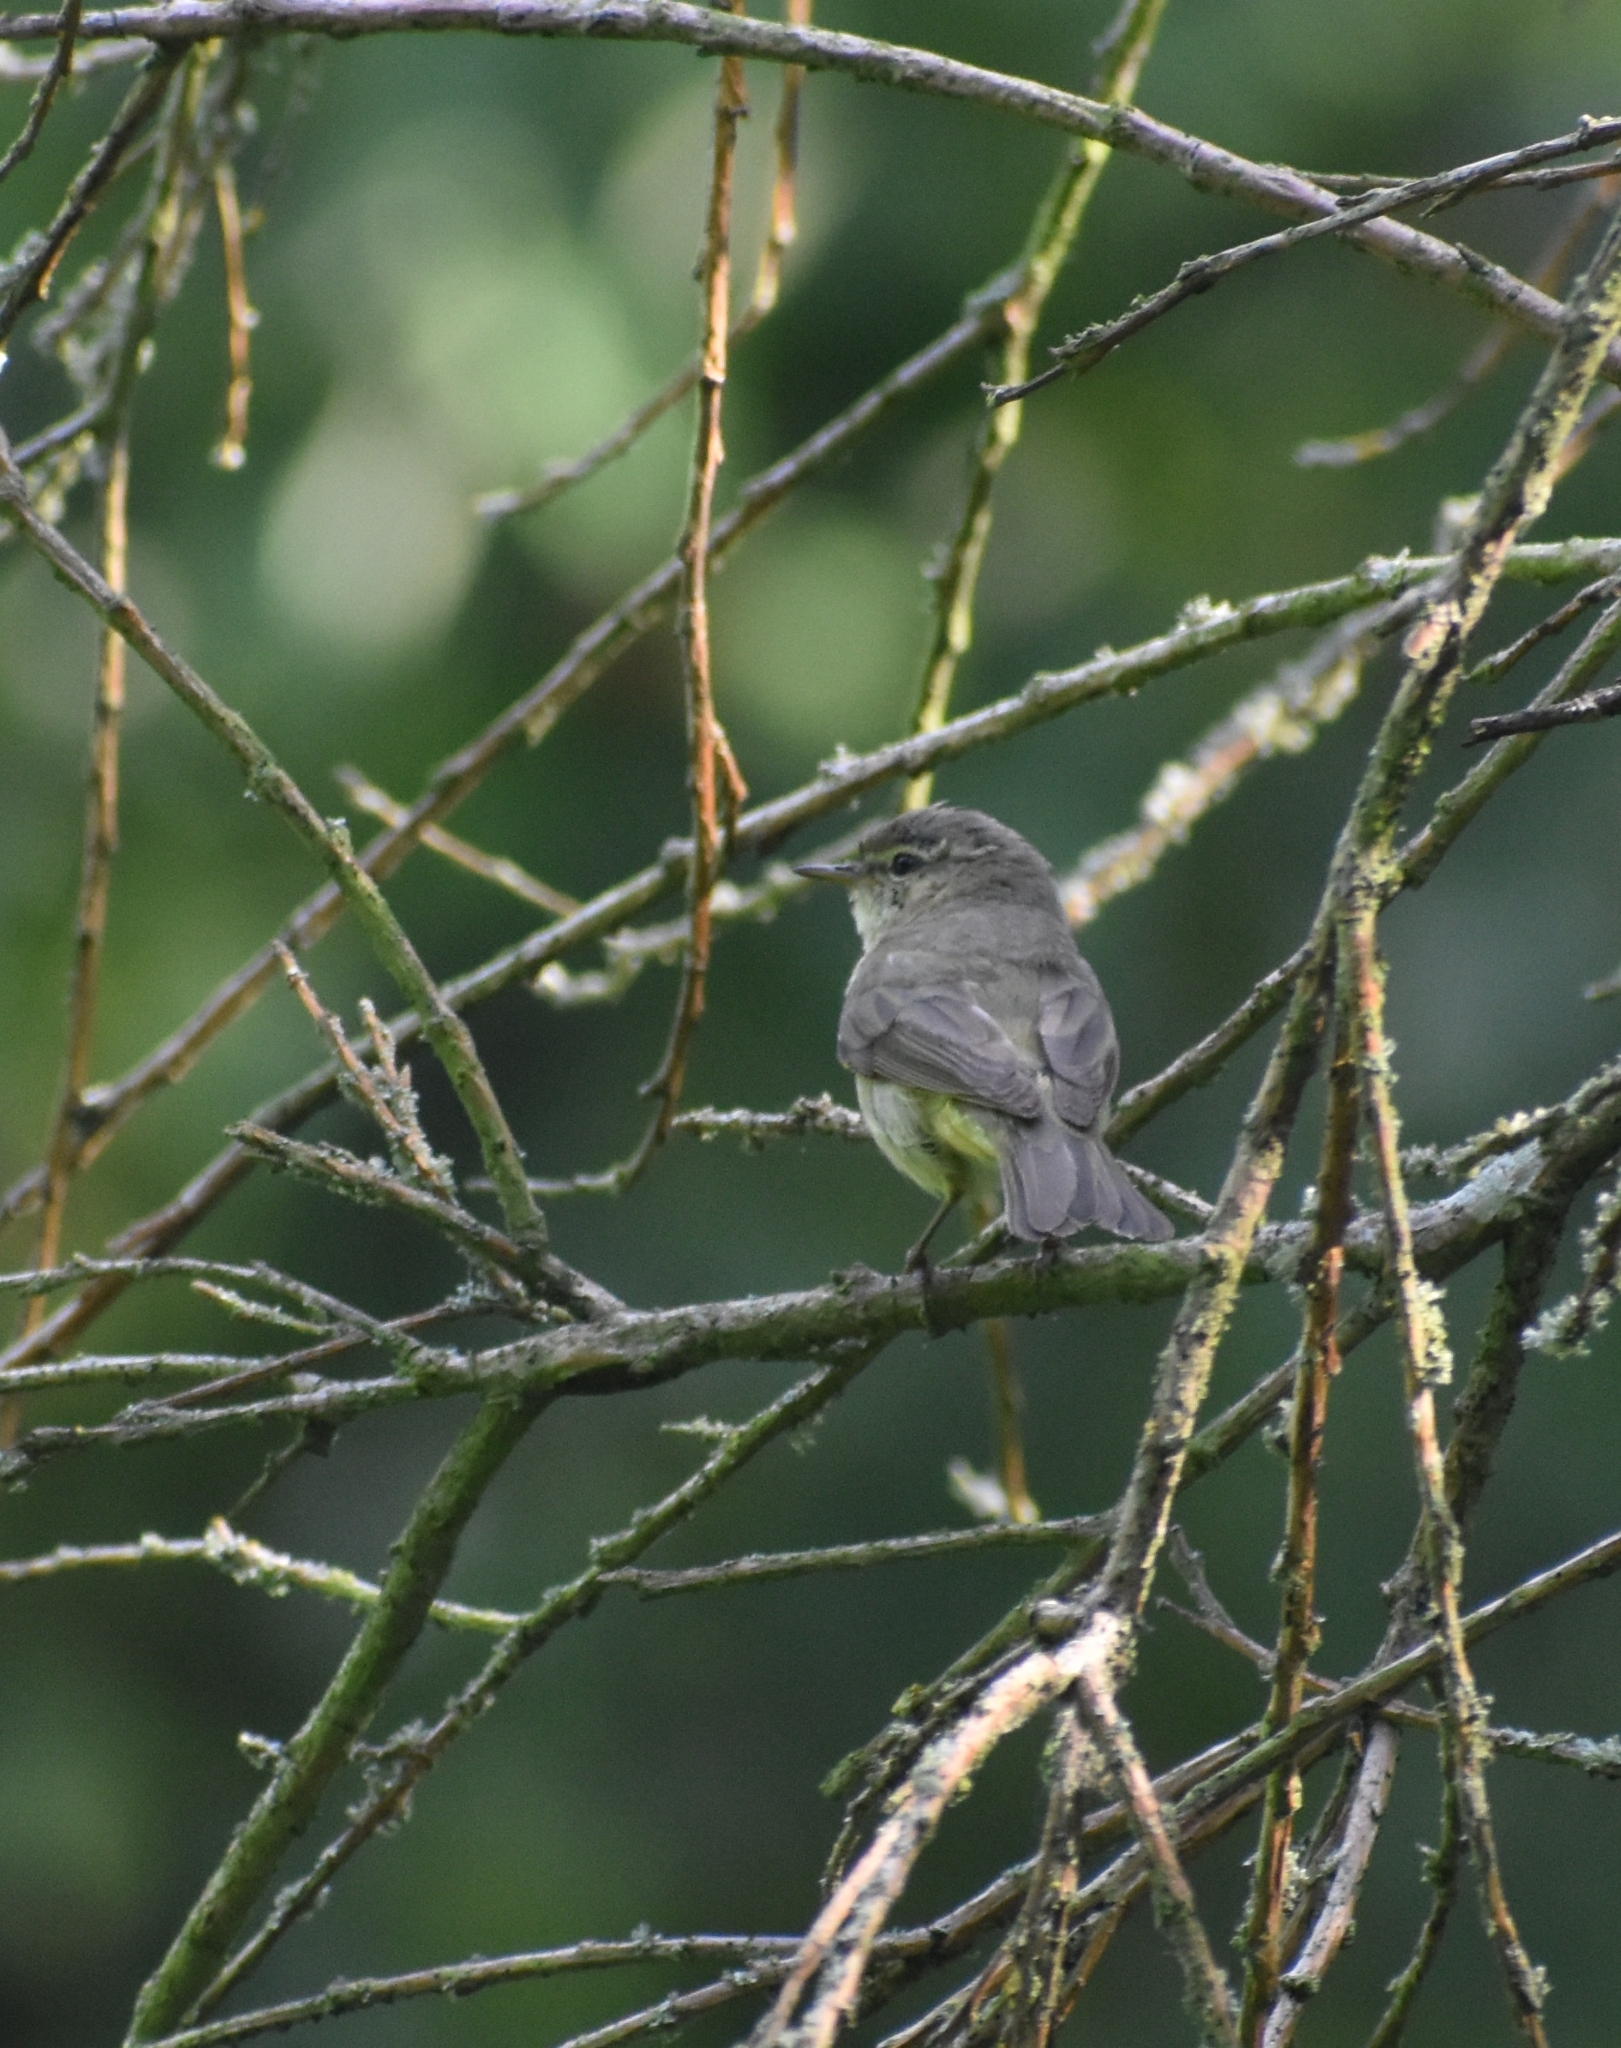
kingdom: Animalia
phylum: Chordata
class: Aves
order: Passeriformes
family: Phylloscopidae
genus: Phylloscopus
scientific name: Phylloscopus collybita
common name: Common chiffchaff
